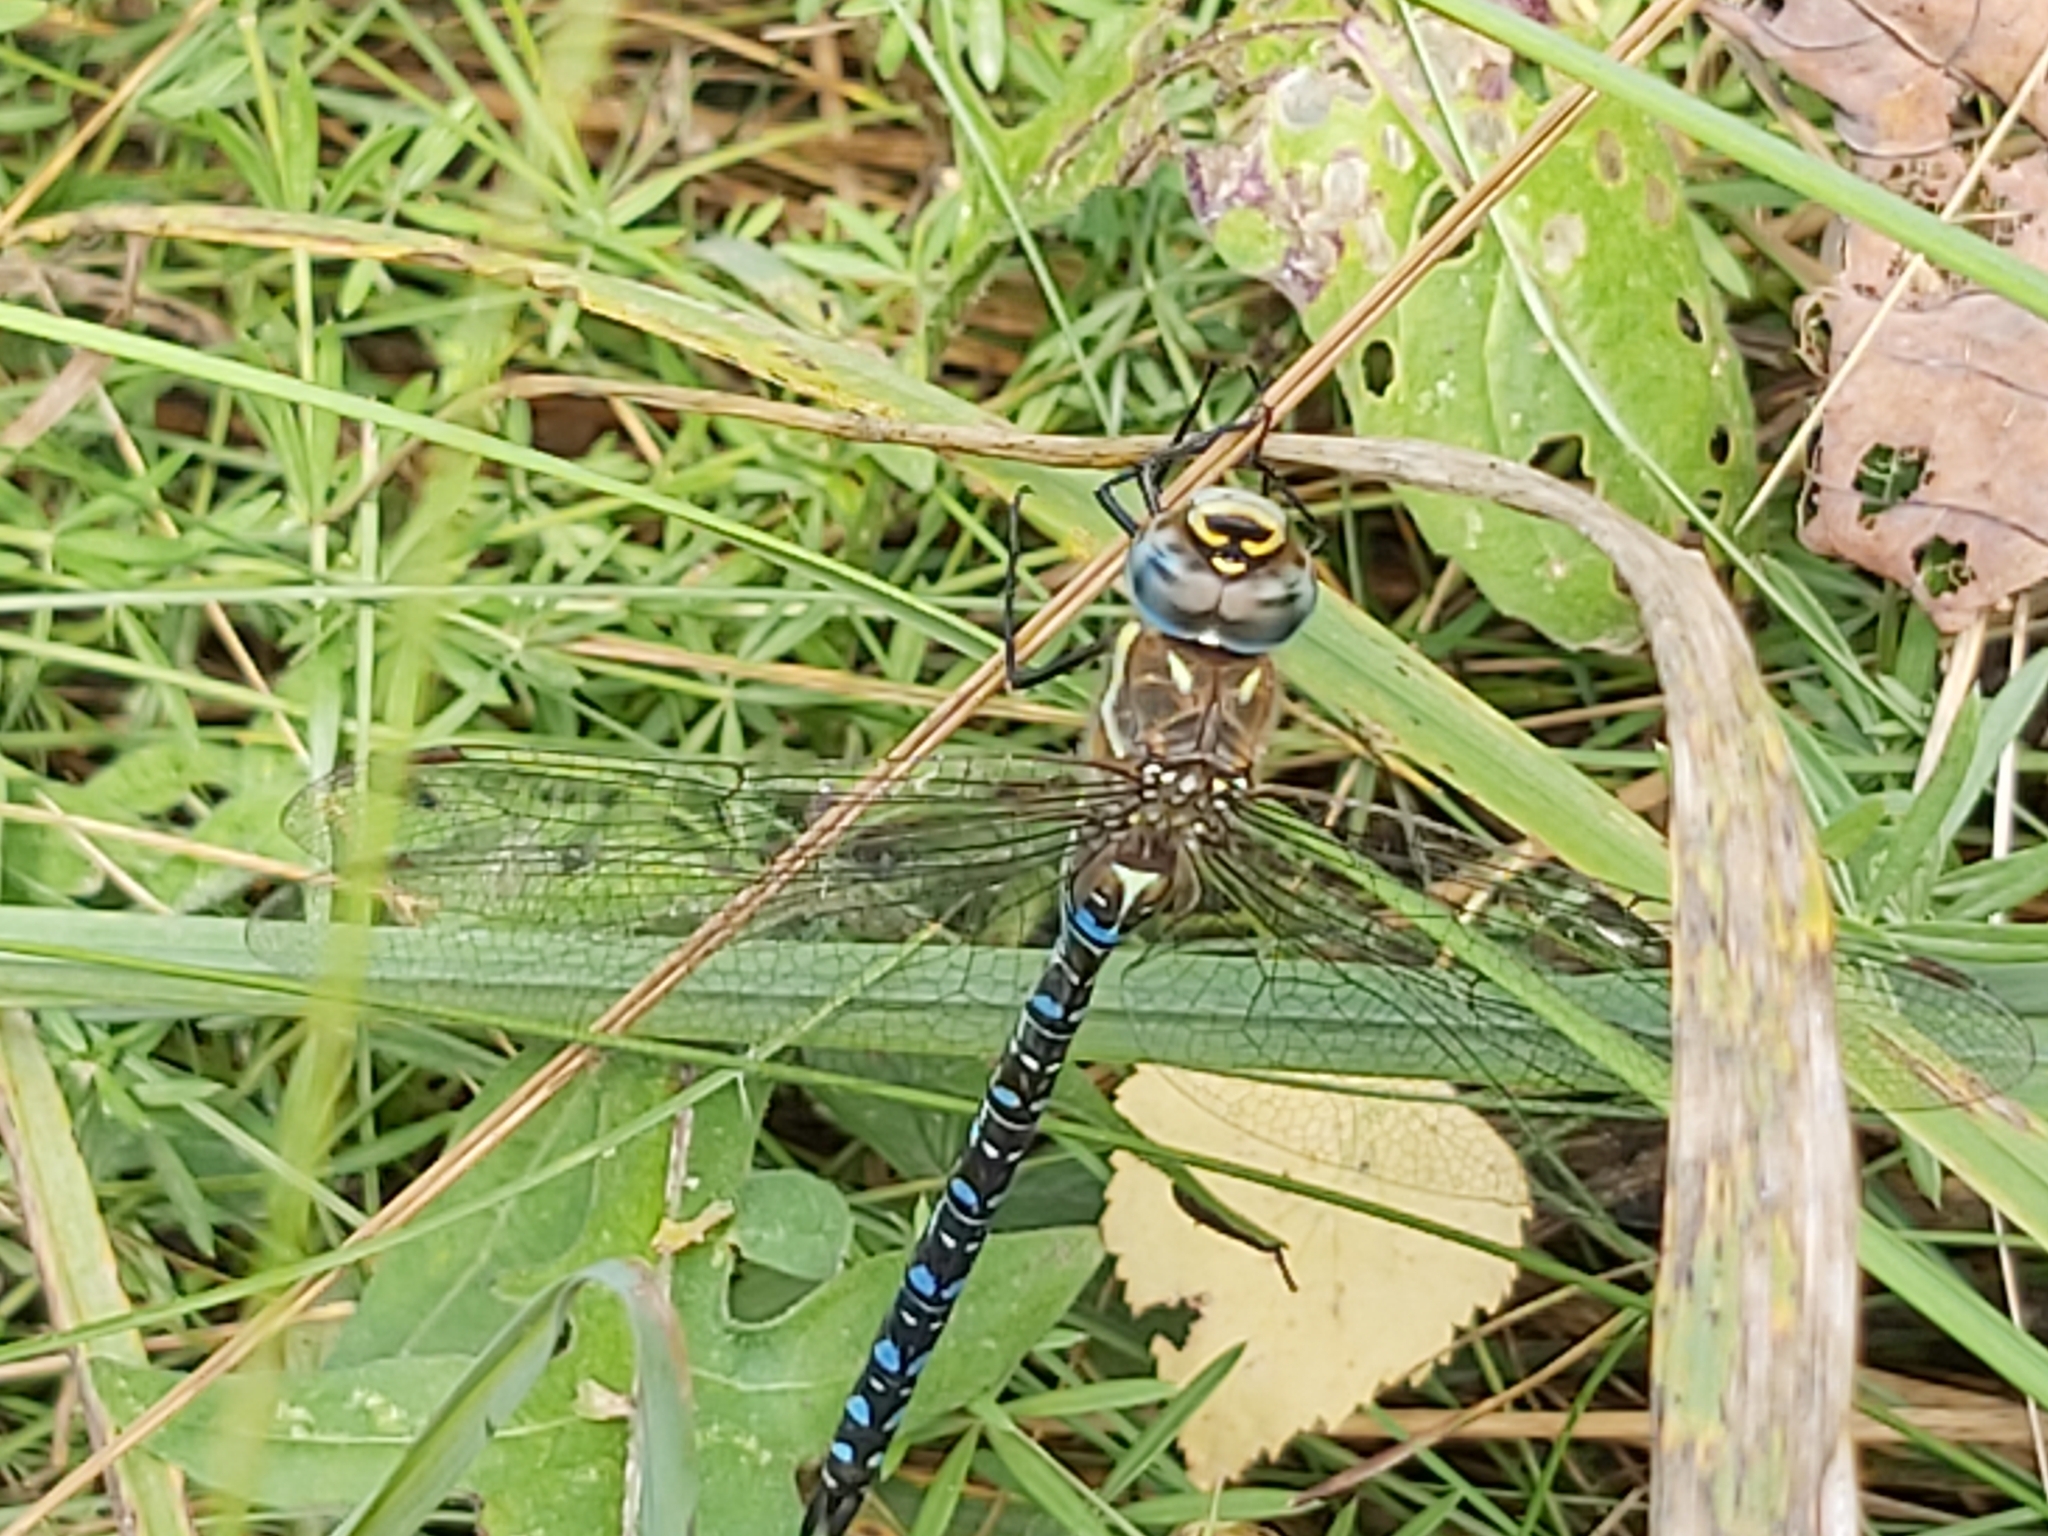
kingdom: Animalia
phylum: Arthropoda
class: Insecta
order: Odonata
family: Aeshnidae
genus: Aeshna
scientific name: Aeshna mixta
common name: Migrant hawker
